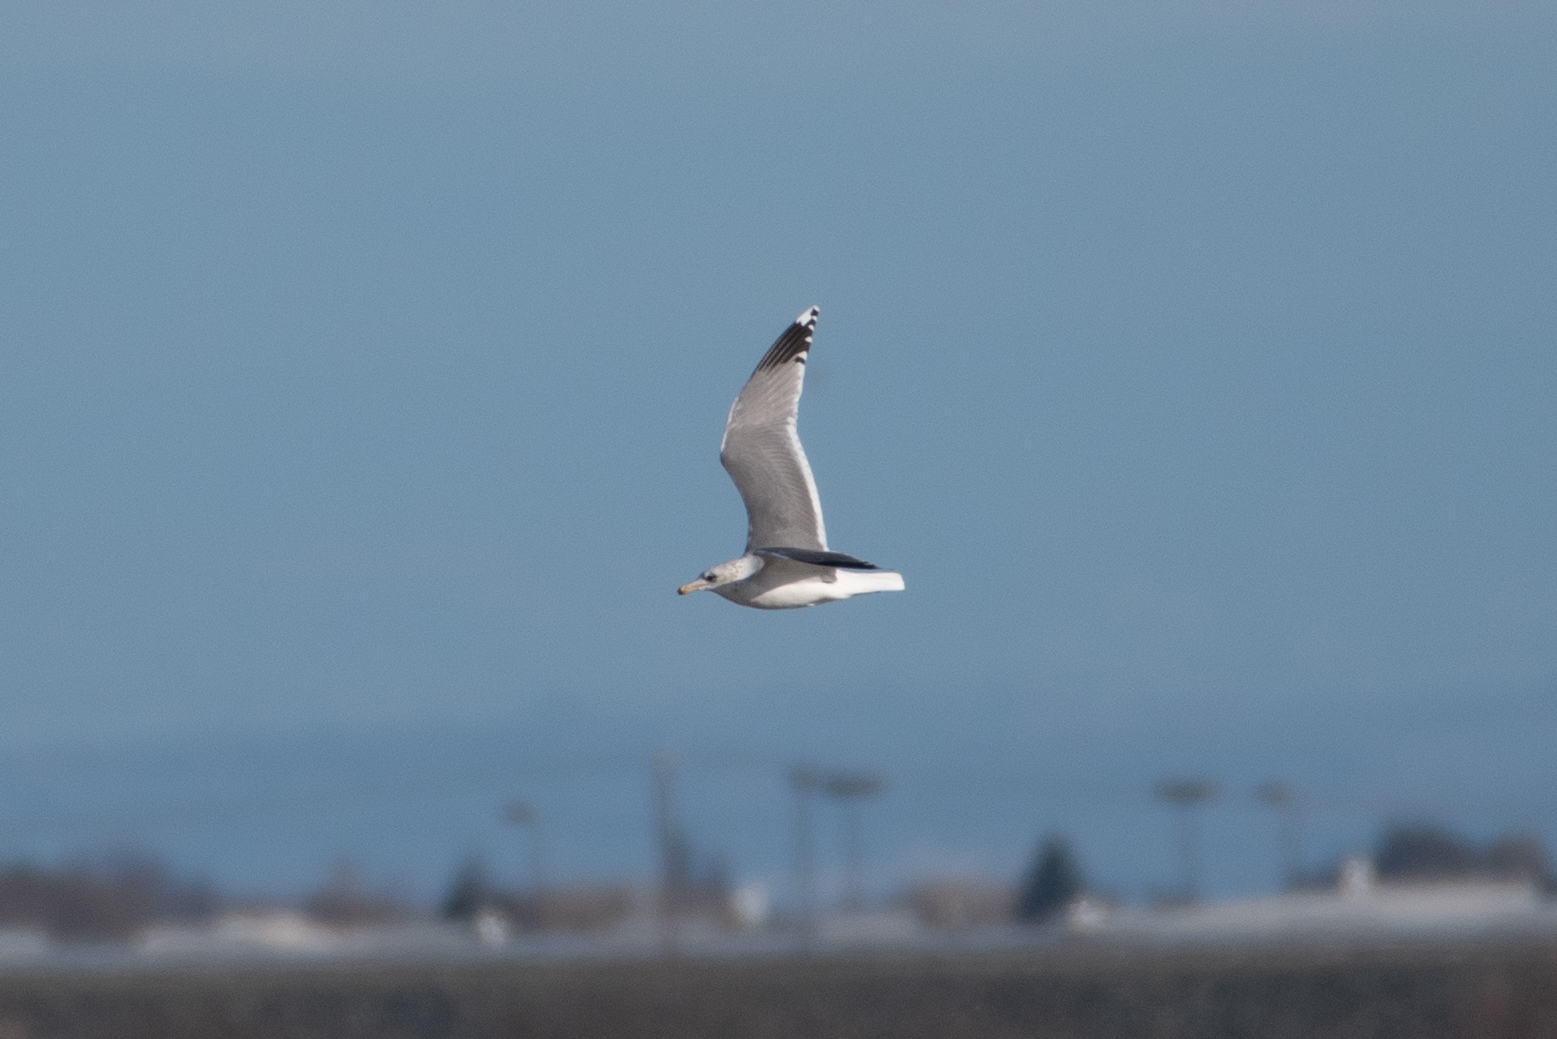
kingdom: Animalia
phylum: Chordata
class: Aves
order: Charadriiformes
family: Laridae
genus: Larus
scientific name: Larus californicus
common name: California gull
